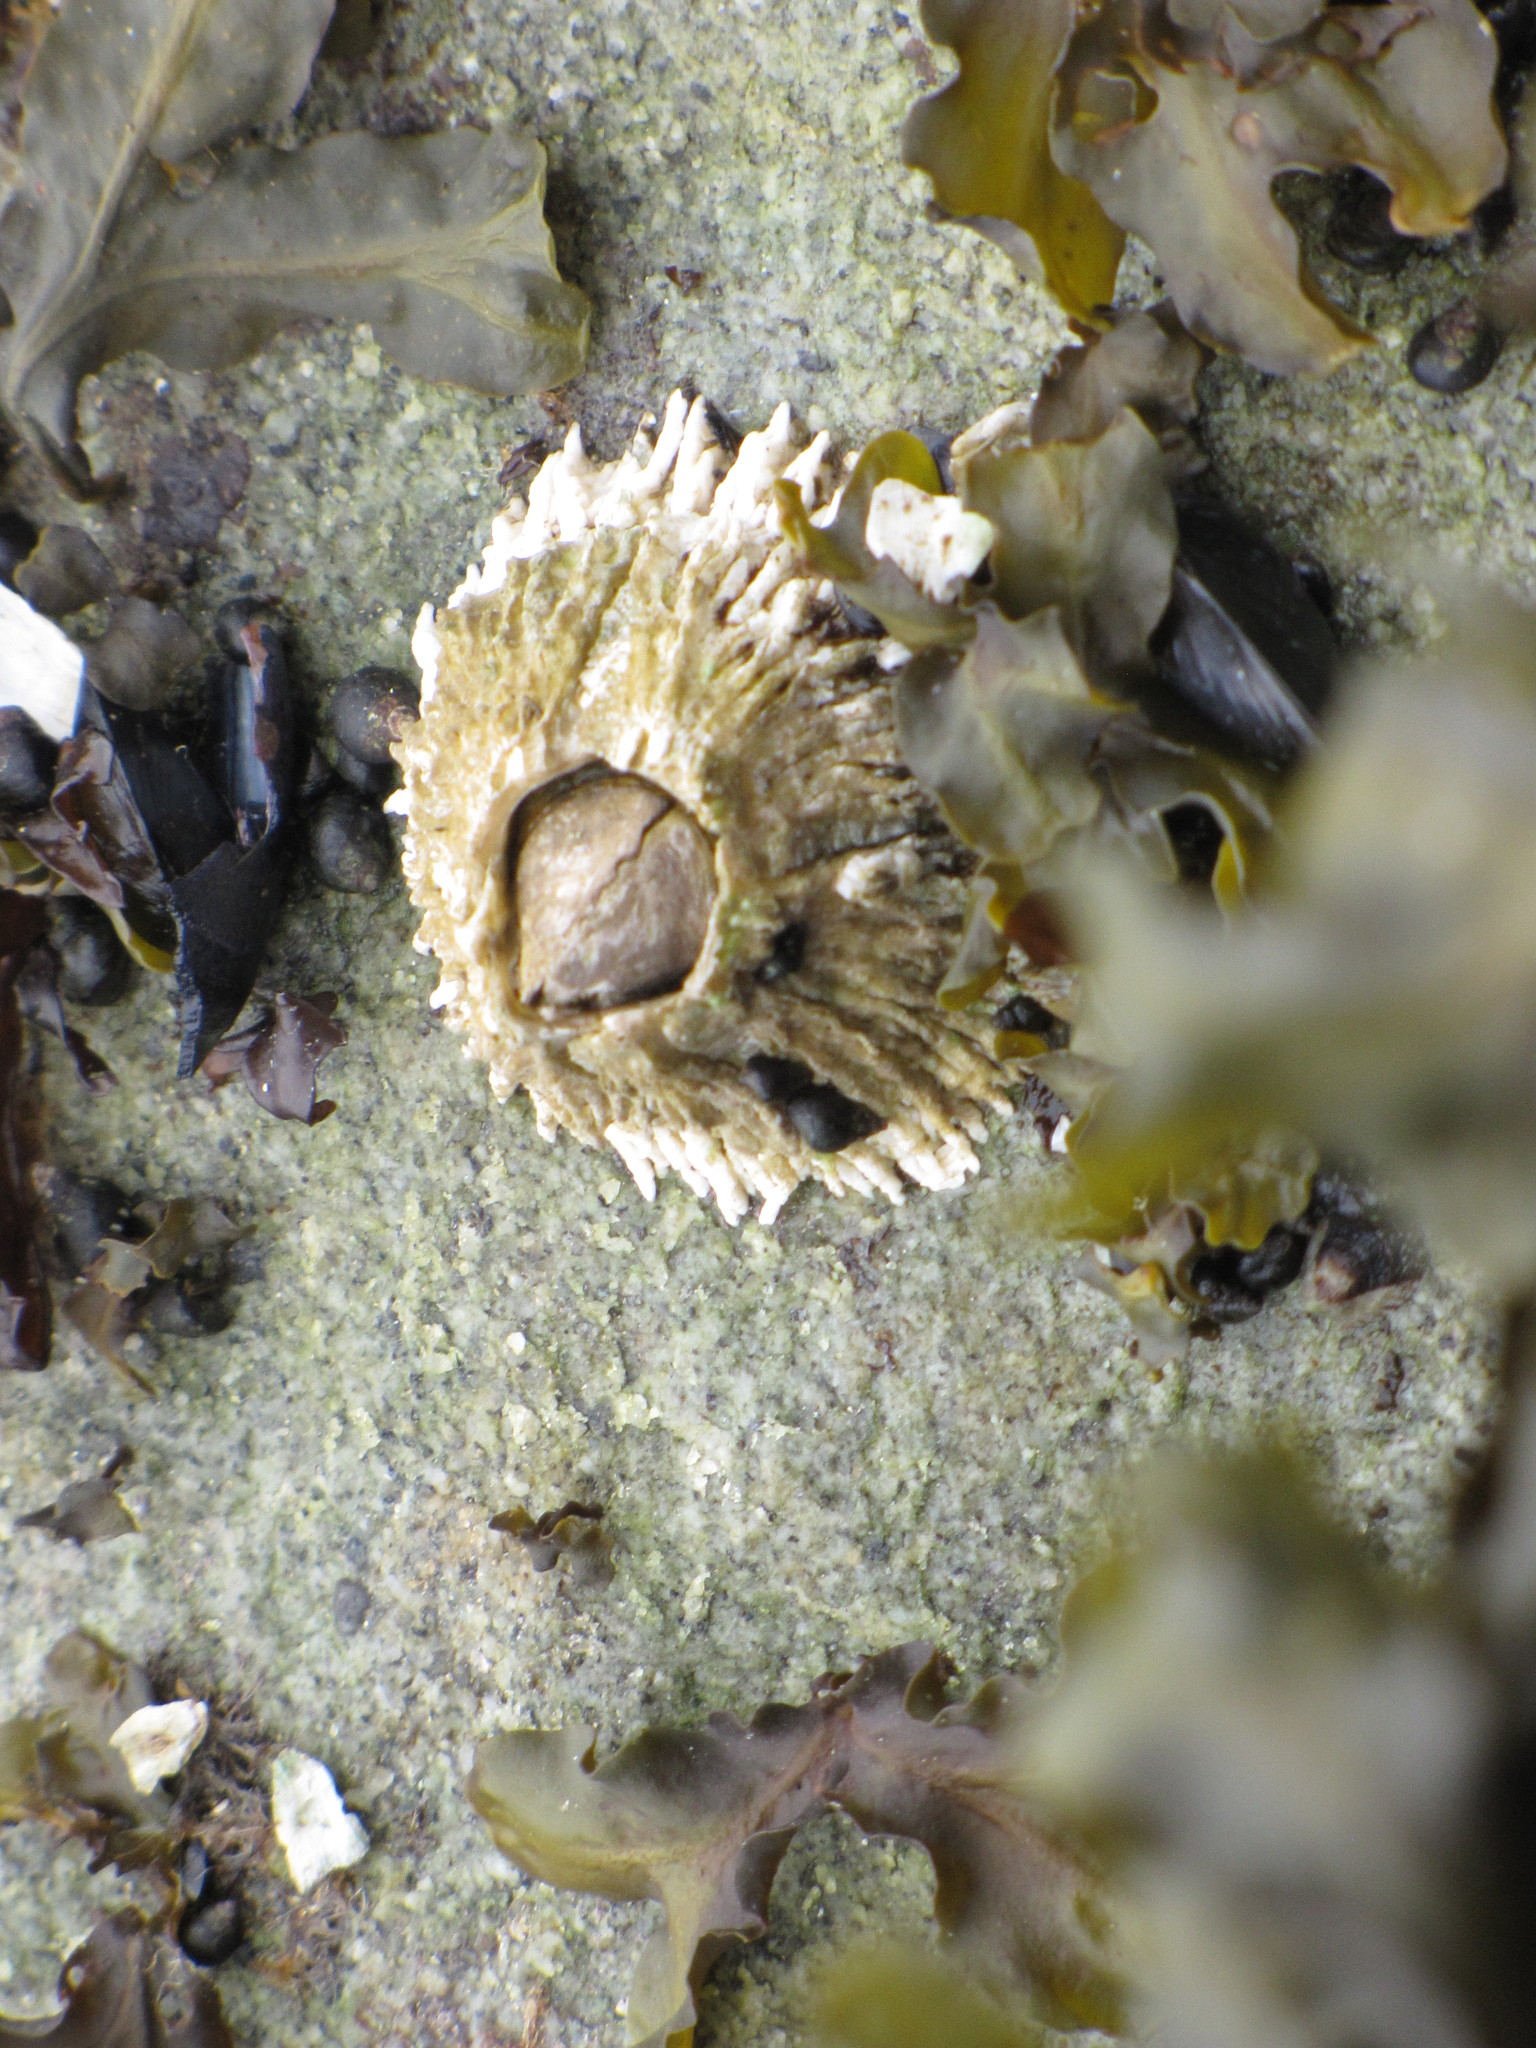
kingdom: Animalia
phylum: Arthropoda
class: Maxillopoda
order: Sessilia
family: Archaeobalanidae
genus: Semibalanus
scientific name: Semibalanus cariosus
